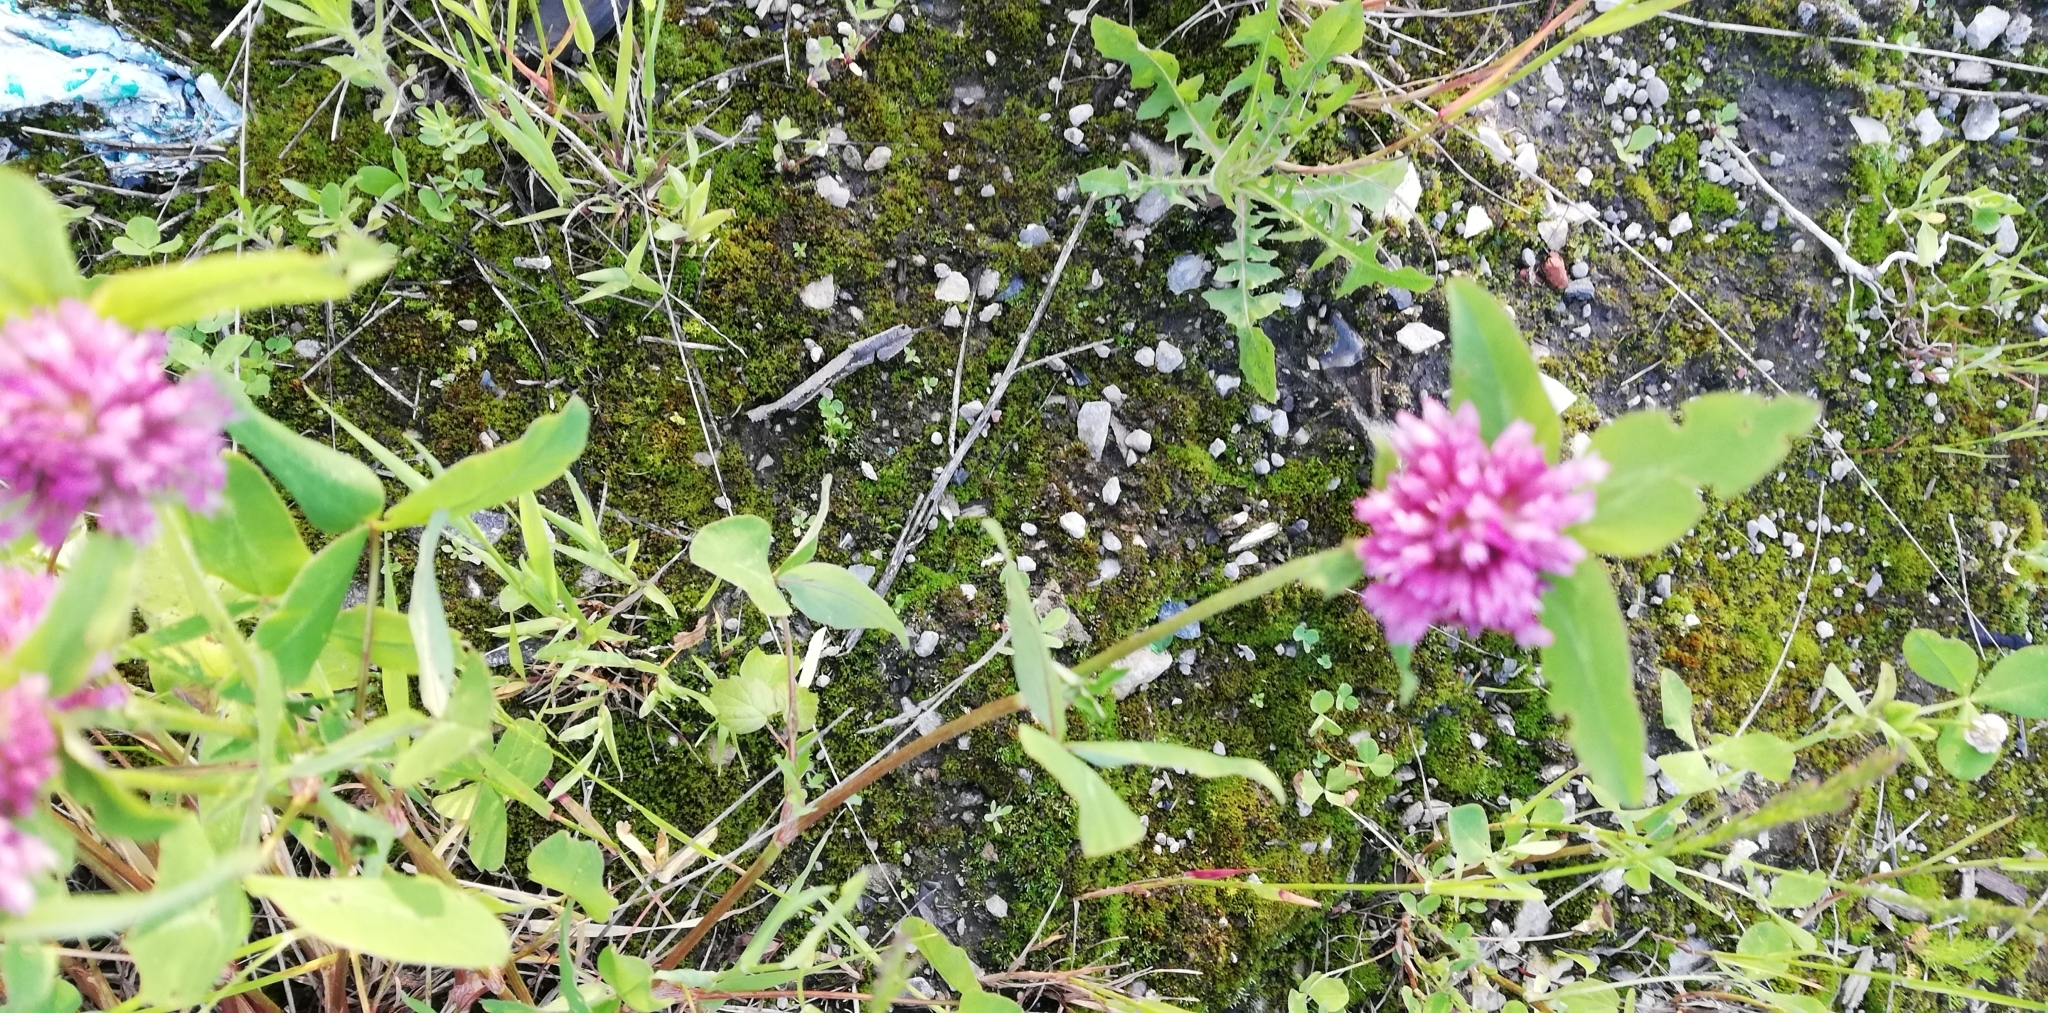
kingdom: Plantae
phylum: Tracheophyta
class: Magnoliopsida
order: Fabales
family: Fabaceae
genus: Trifolium
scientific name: Trifolium pratense
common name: Red clover
